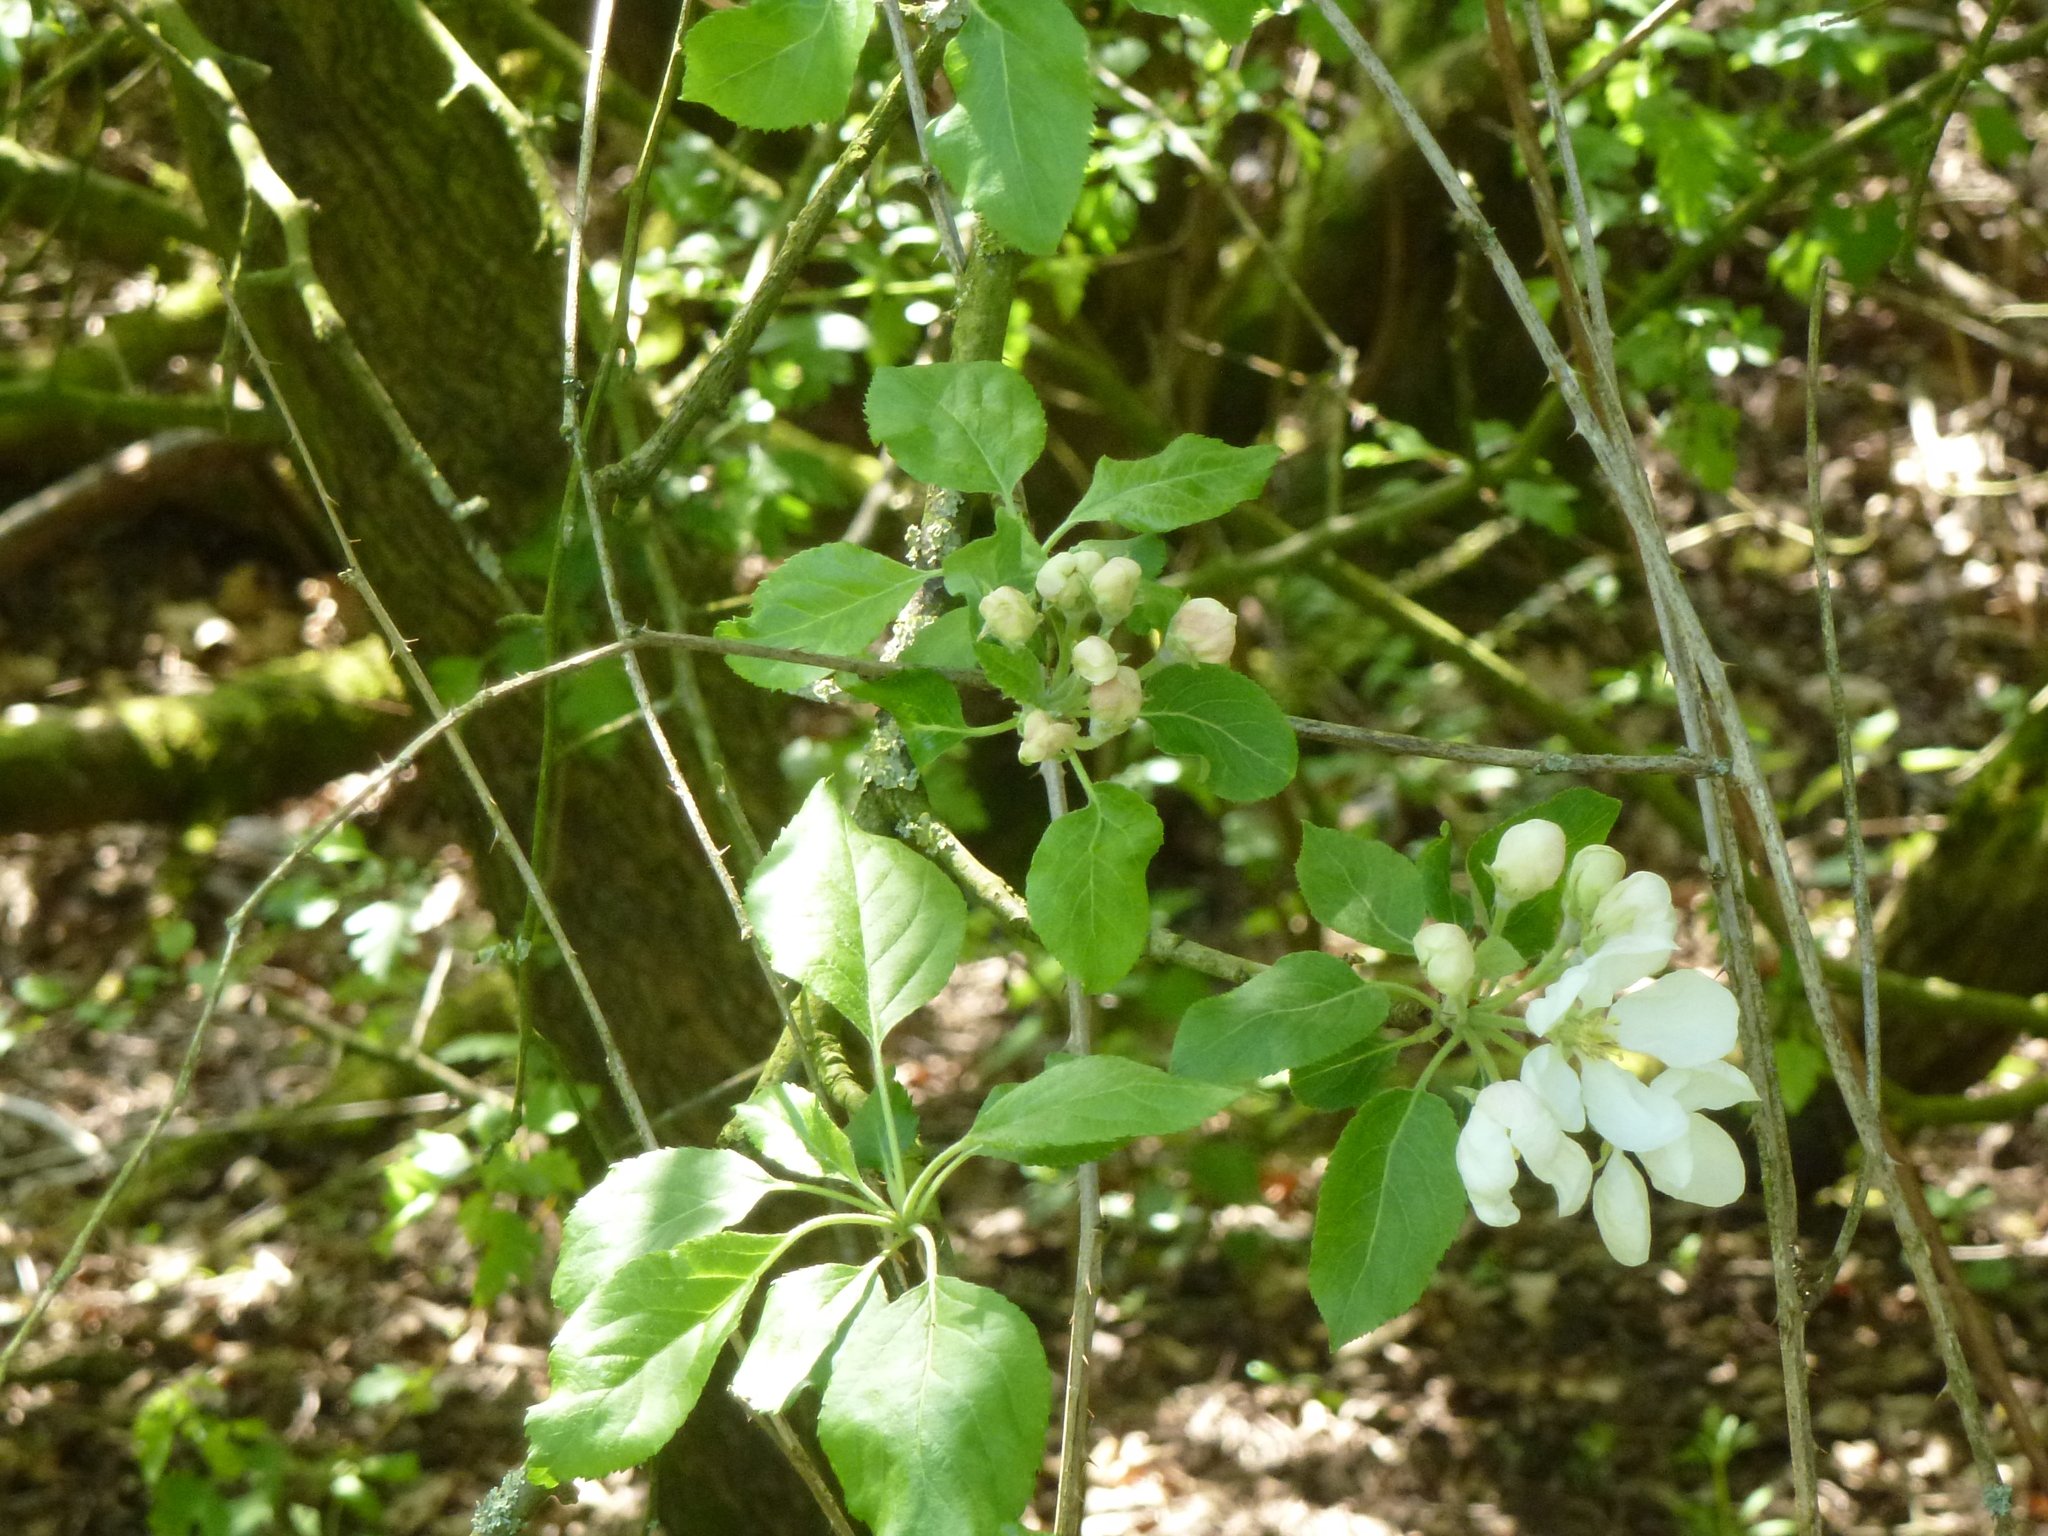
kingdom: Plantae
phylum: Tracheophyta
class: Magnoliopsida
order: Rosales
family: Rosaceae
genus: Malus
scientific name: Malus domestica
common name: Apple
